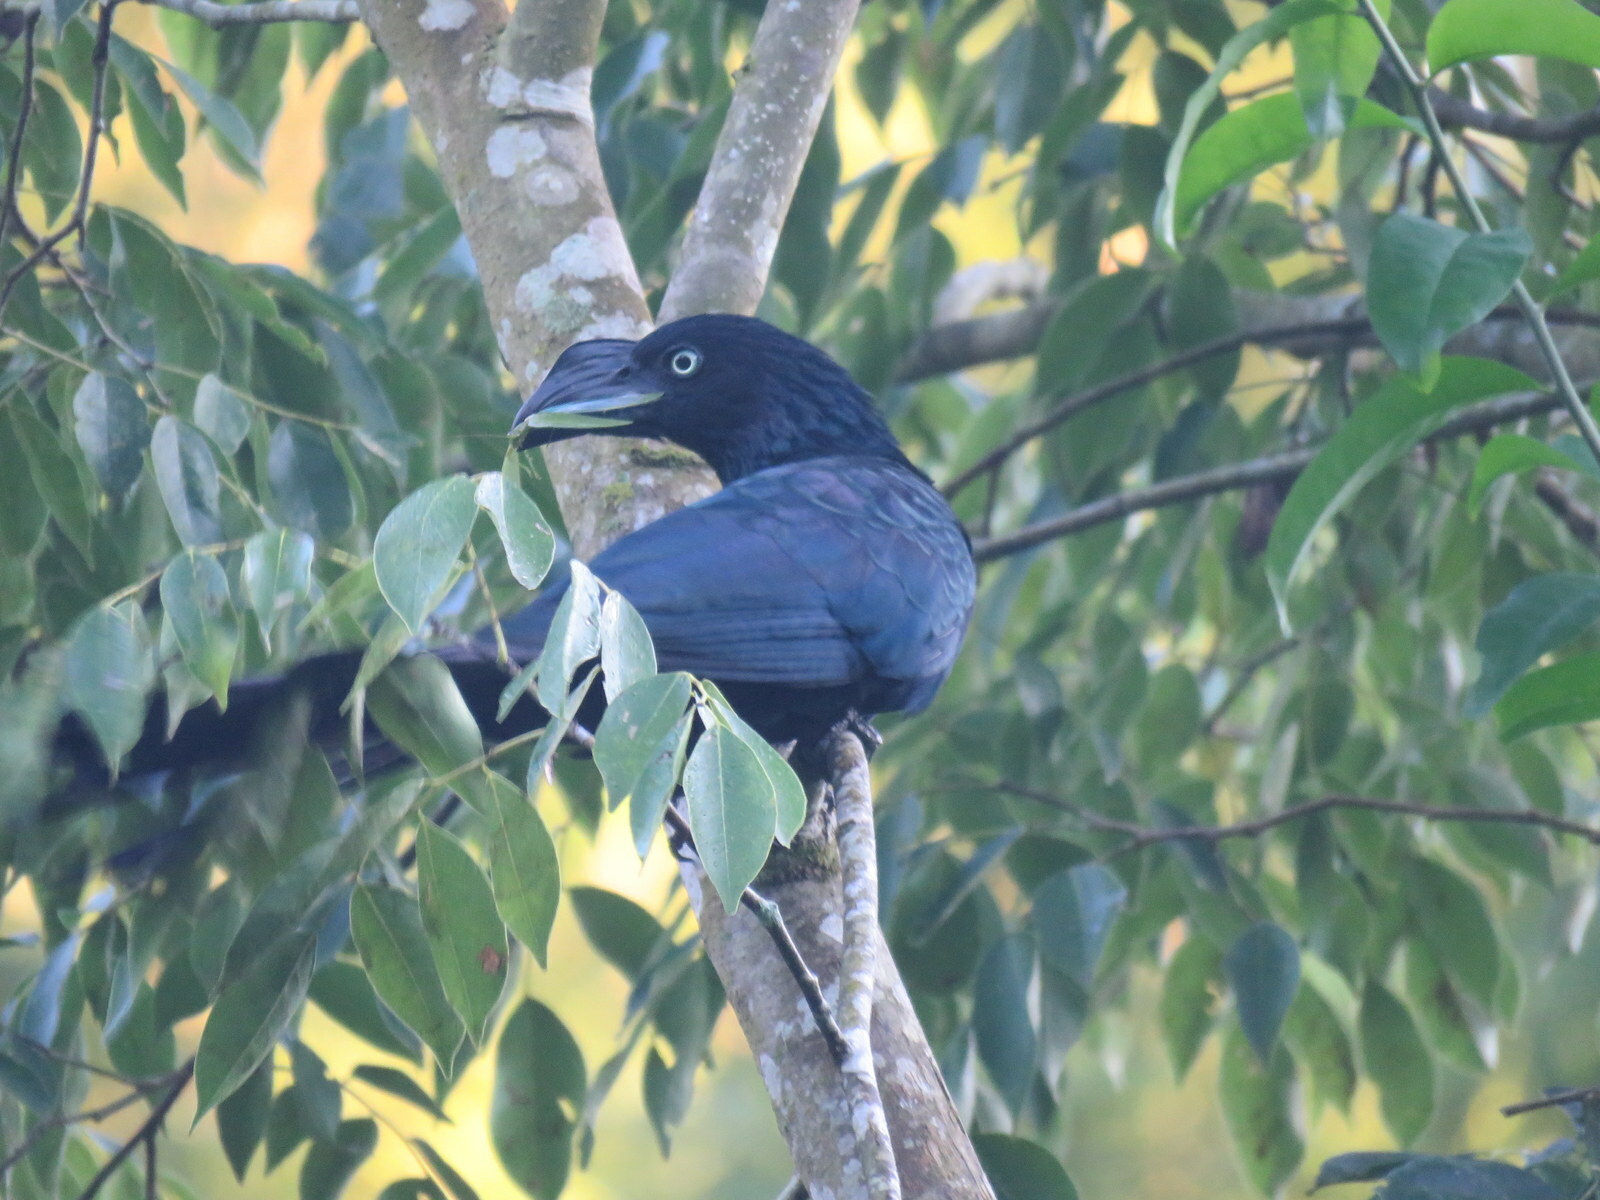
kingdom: Animalia
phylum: Chordata
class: Aves
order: Cuculiformes
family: Cuculidae
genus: Crotophaga
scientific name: Crotophaga major
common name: Greater ani
